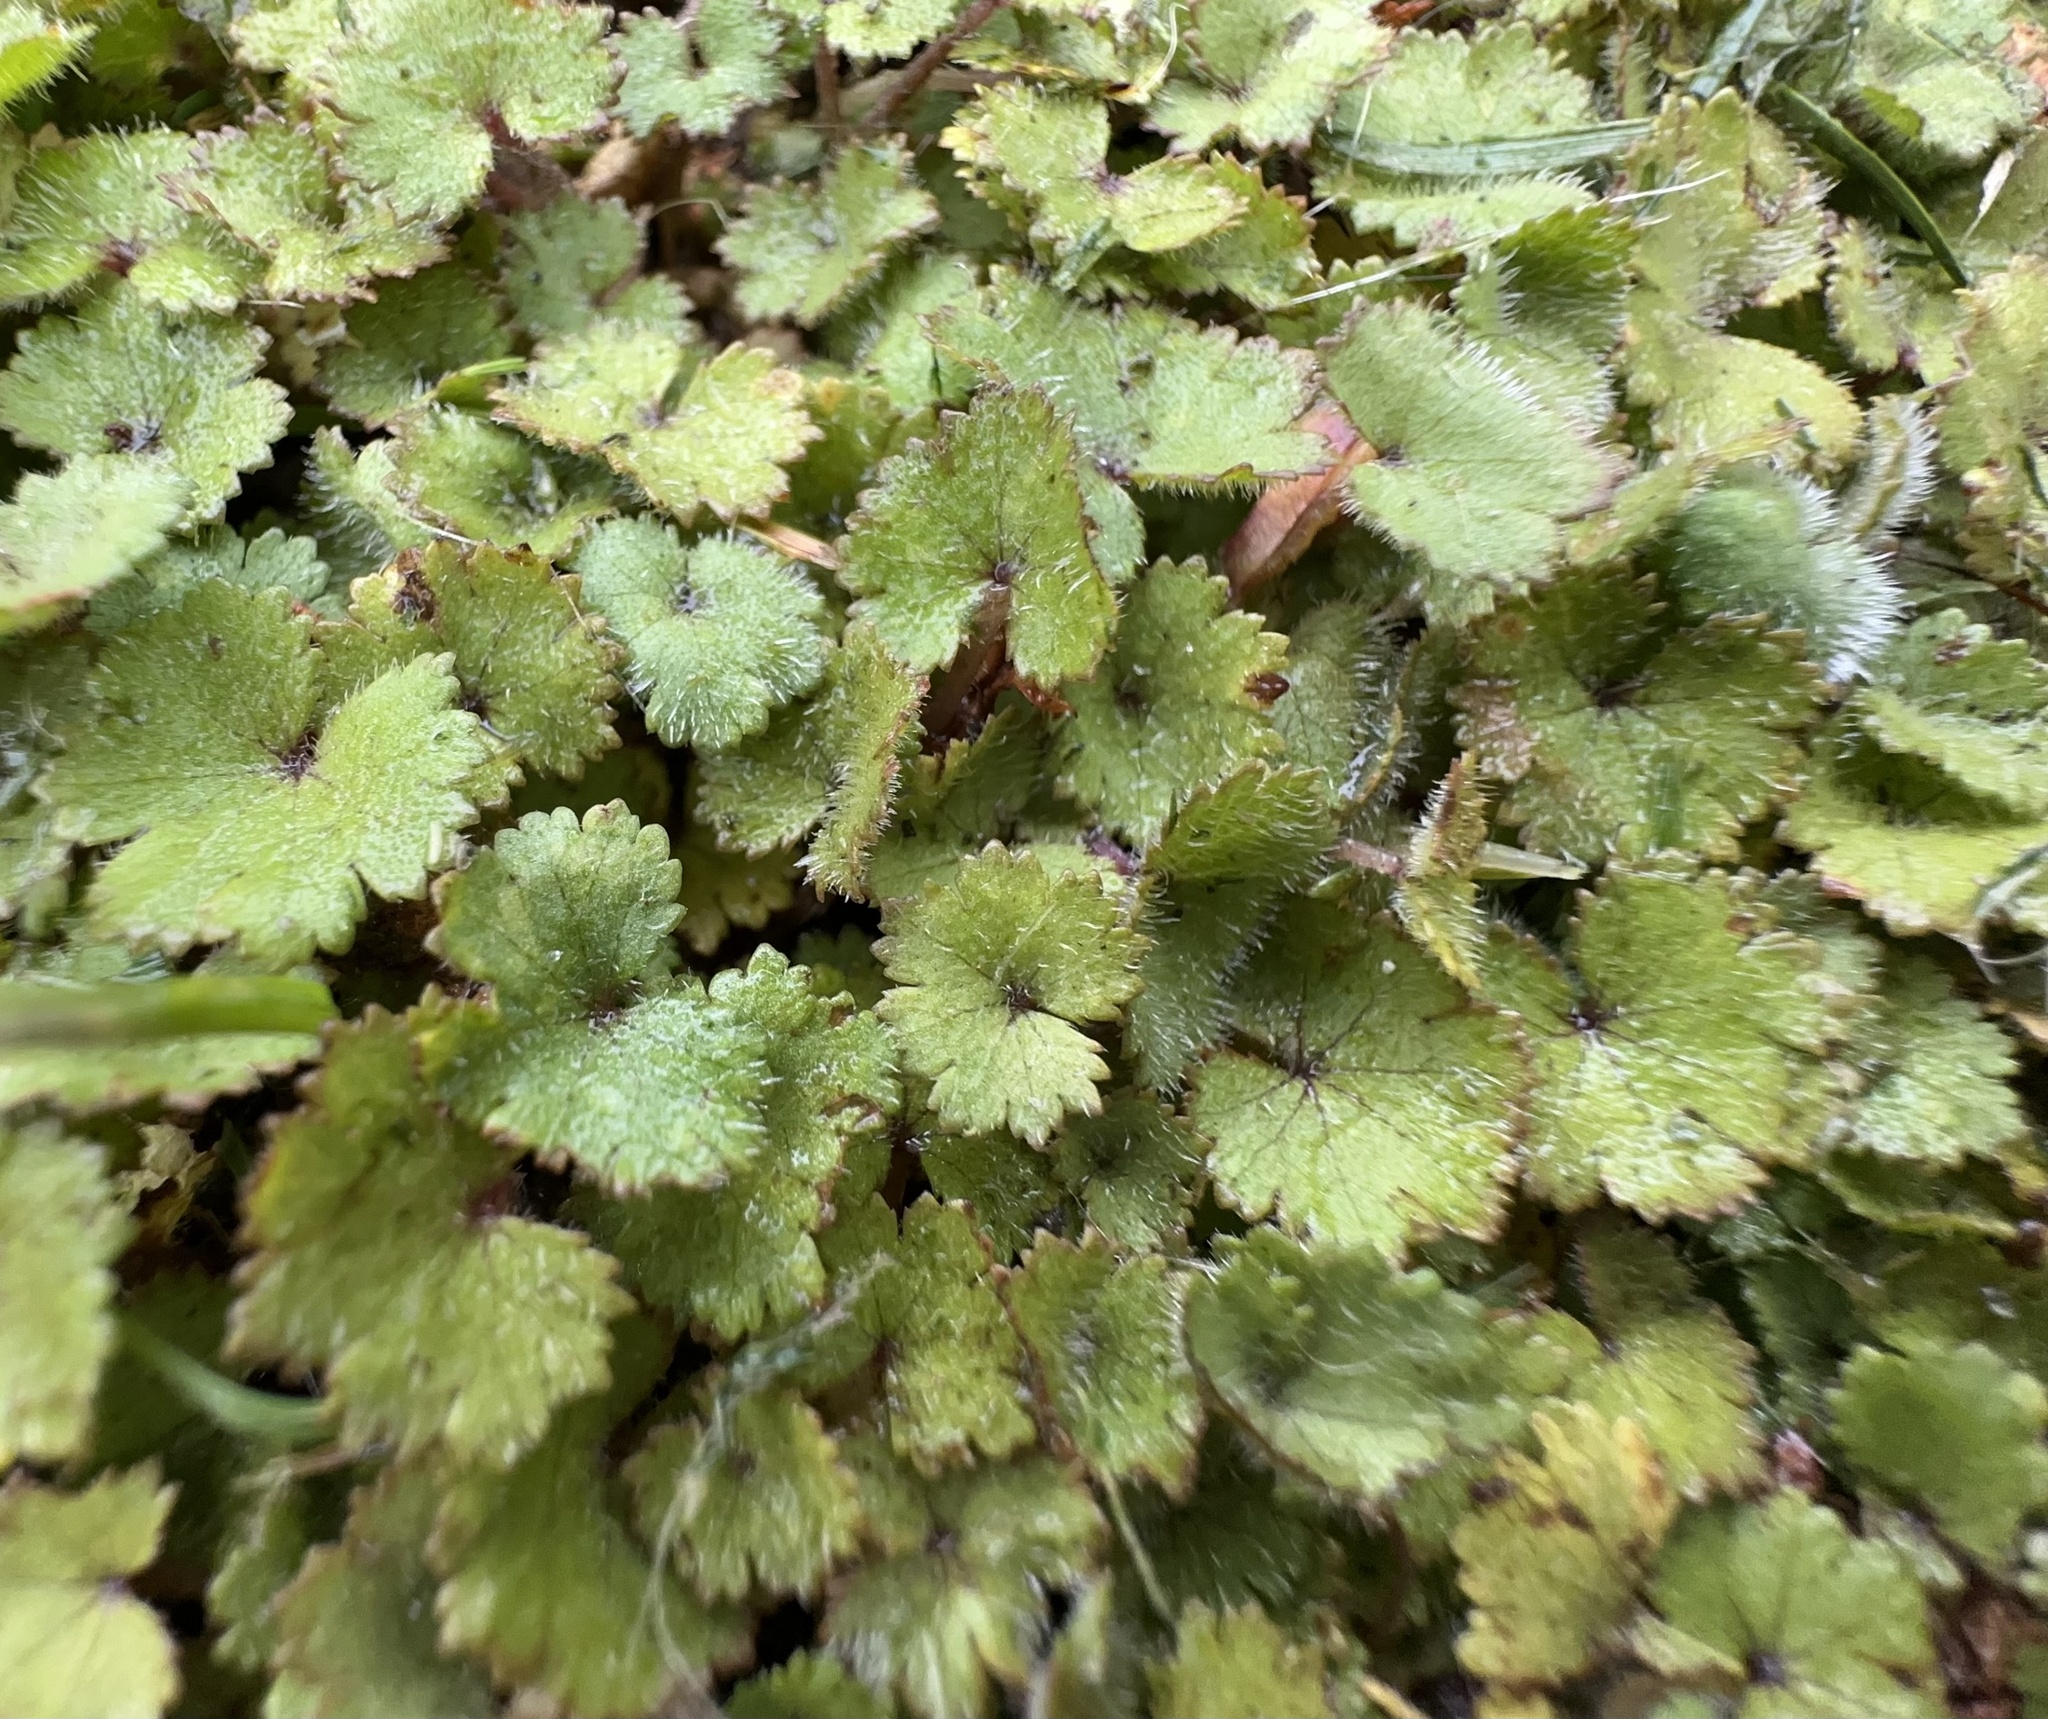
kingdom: Plantae
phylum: Tracheophyta
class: Magnoliopsida
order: Apiales
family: Araliaceae
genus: Hydrocotyle
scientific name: Hydrocotyle moschata
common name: Hairy pennywort
